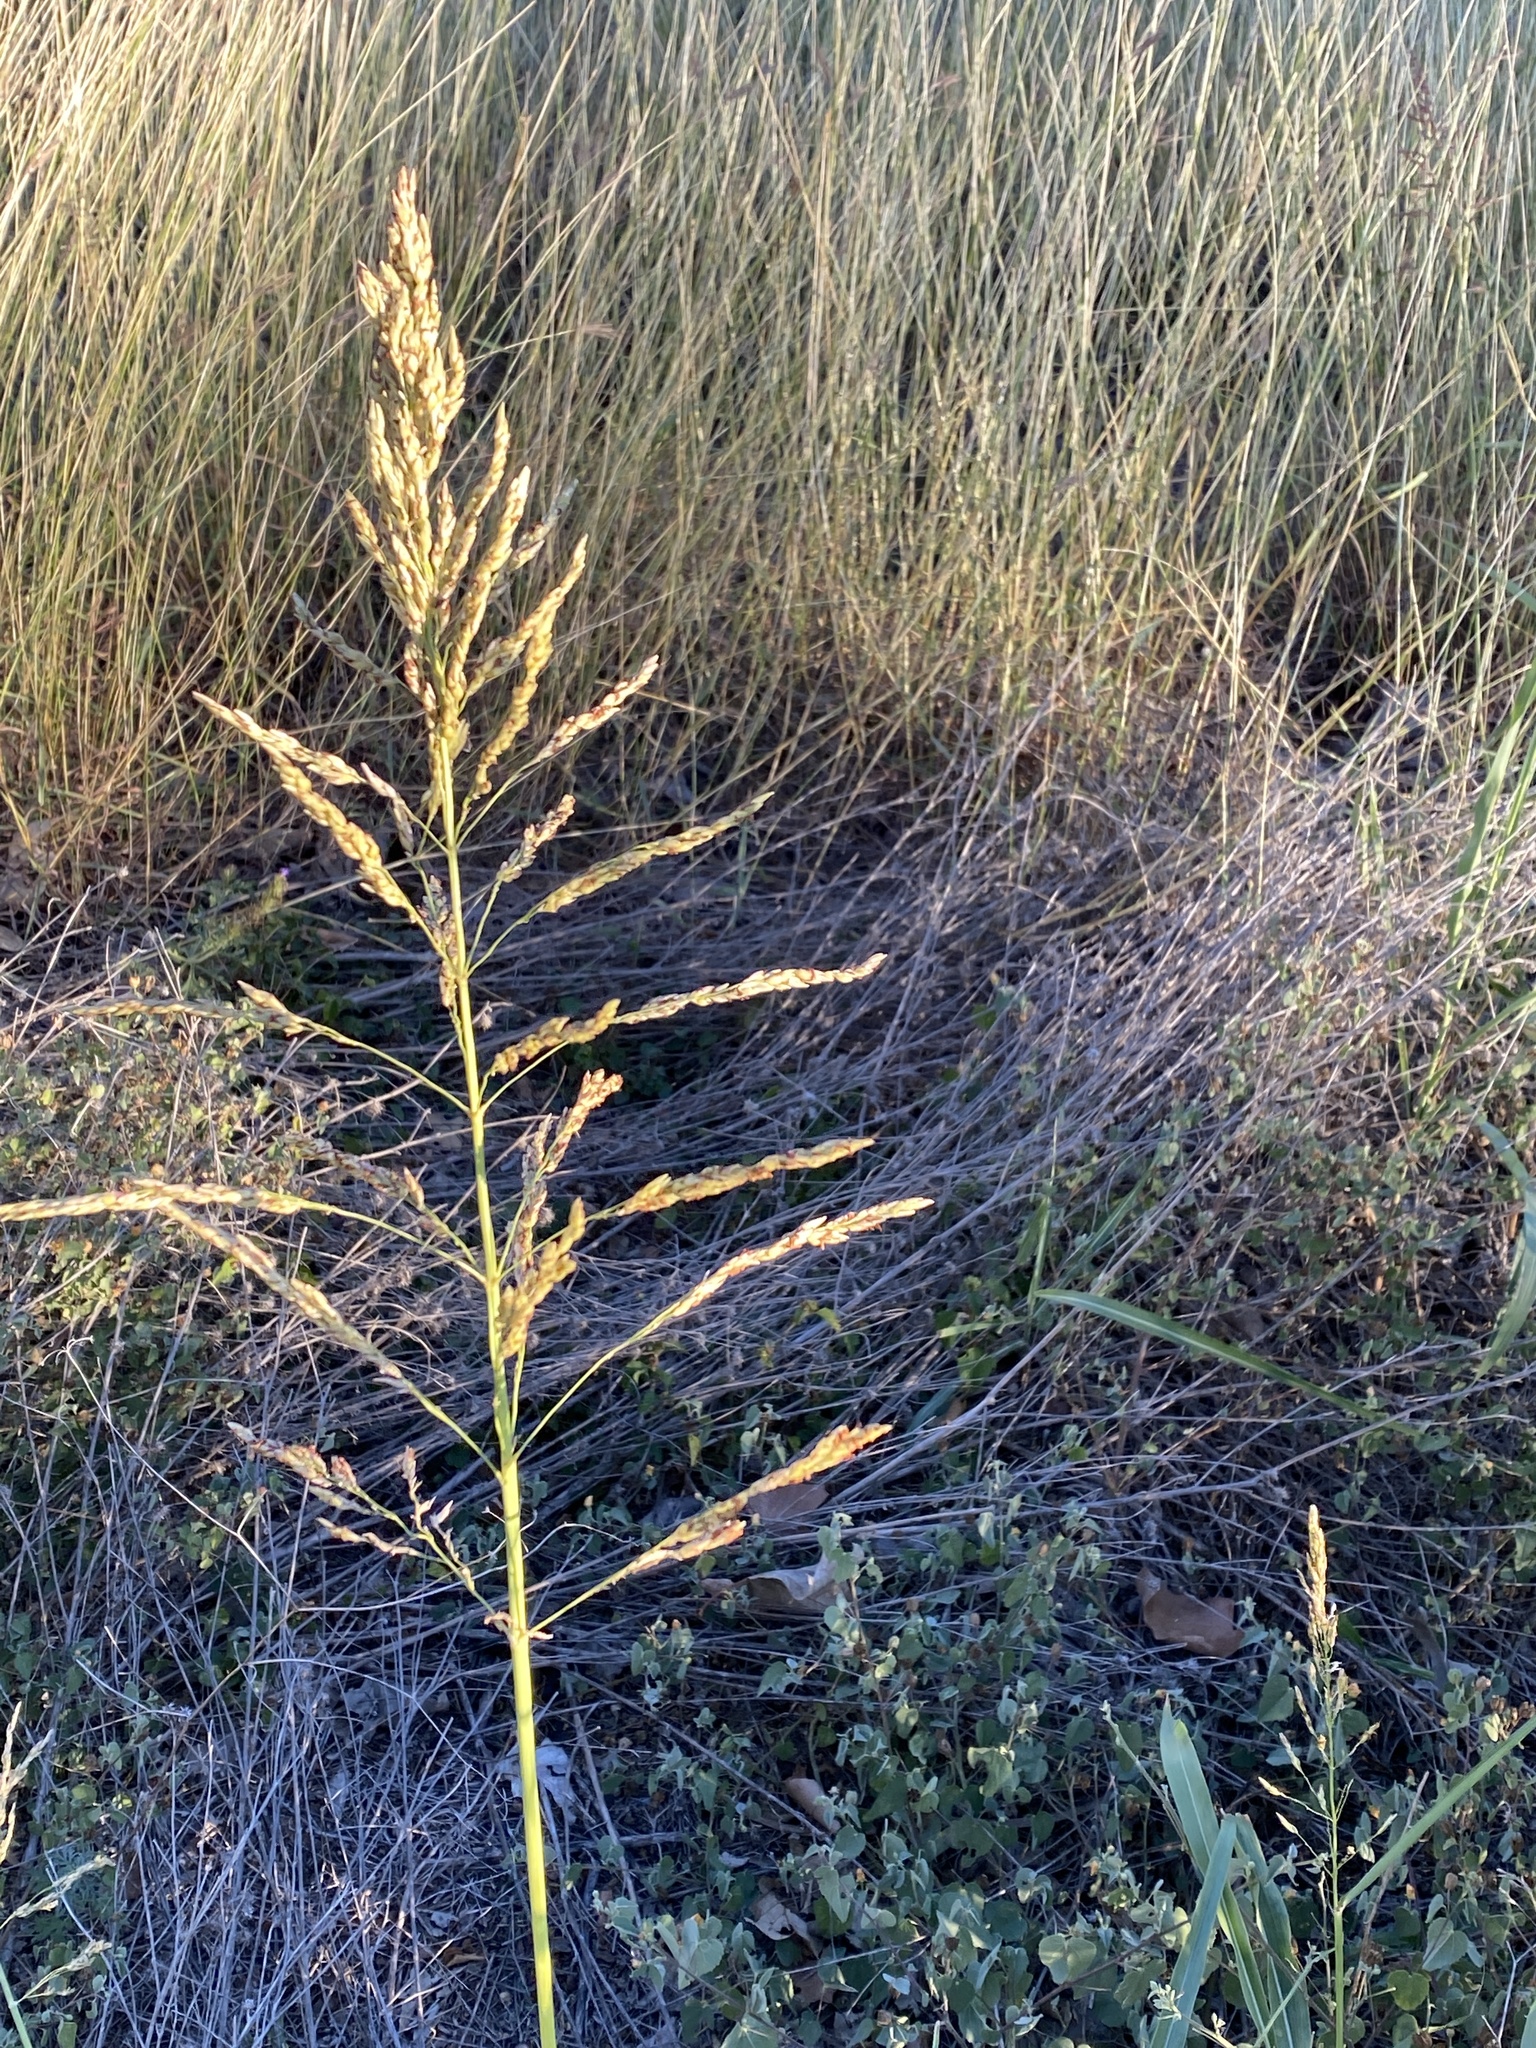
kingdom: Plantae
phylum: Tracheophyta
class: Liliopsida
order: Poales
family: Poaceae
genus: Sorghum
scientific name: Sorghum halepense
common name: Johnson-grass
